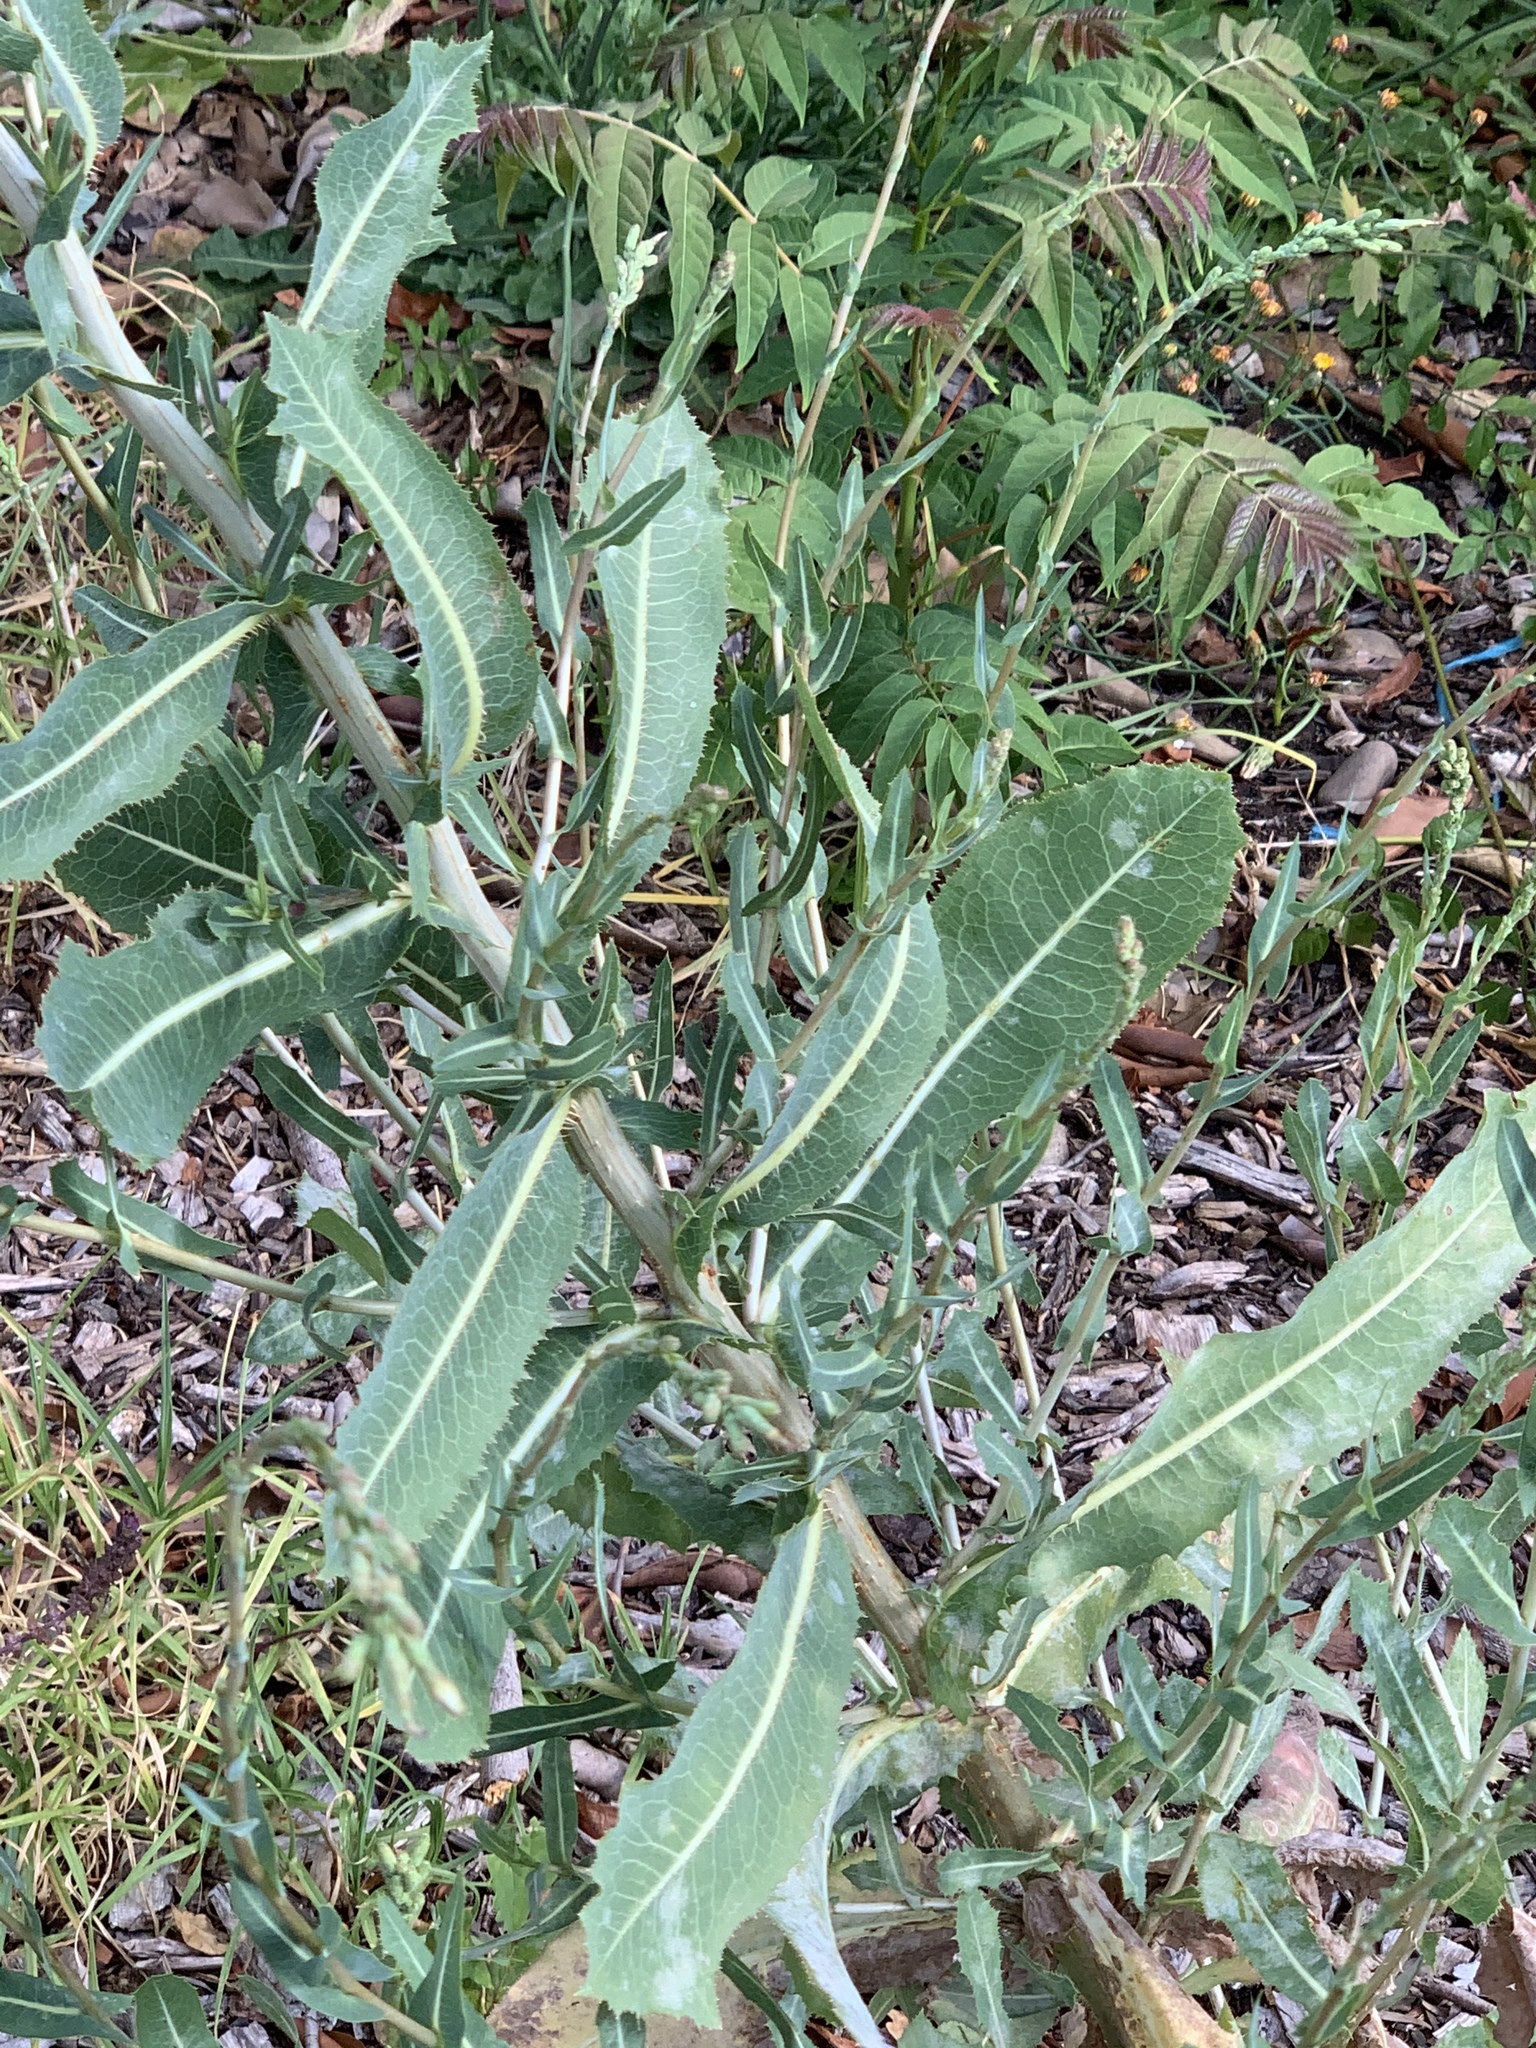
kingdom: Plantae
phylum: Tracheophyta
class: Magnoliopsida
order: Asterales
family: Asteraceae
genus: Lactuca
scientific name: Lactuca serriola
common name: Prickly lettuce
